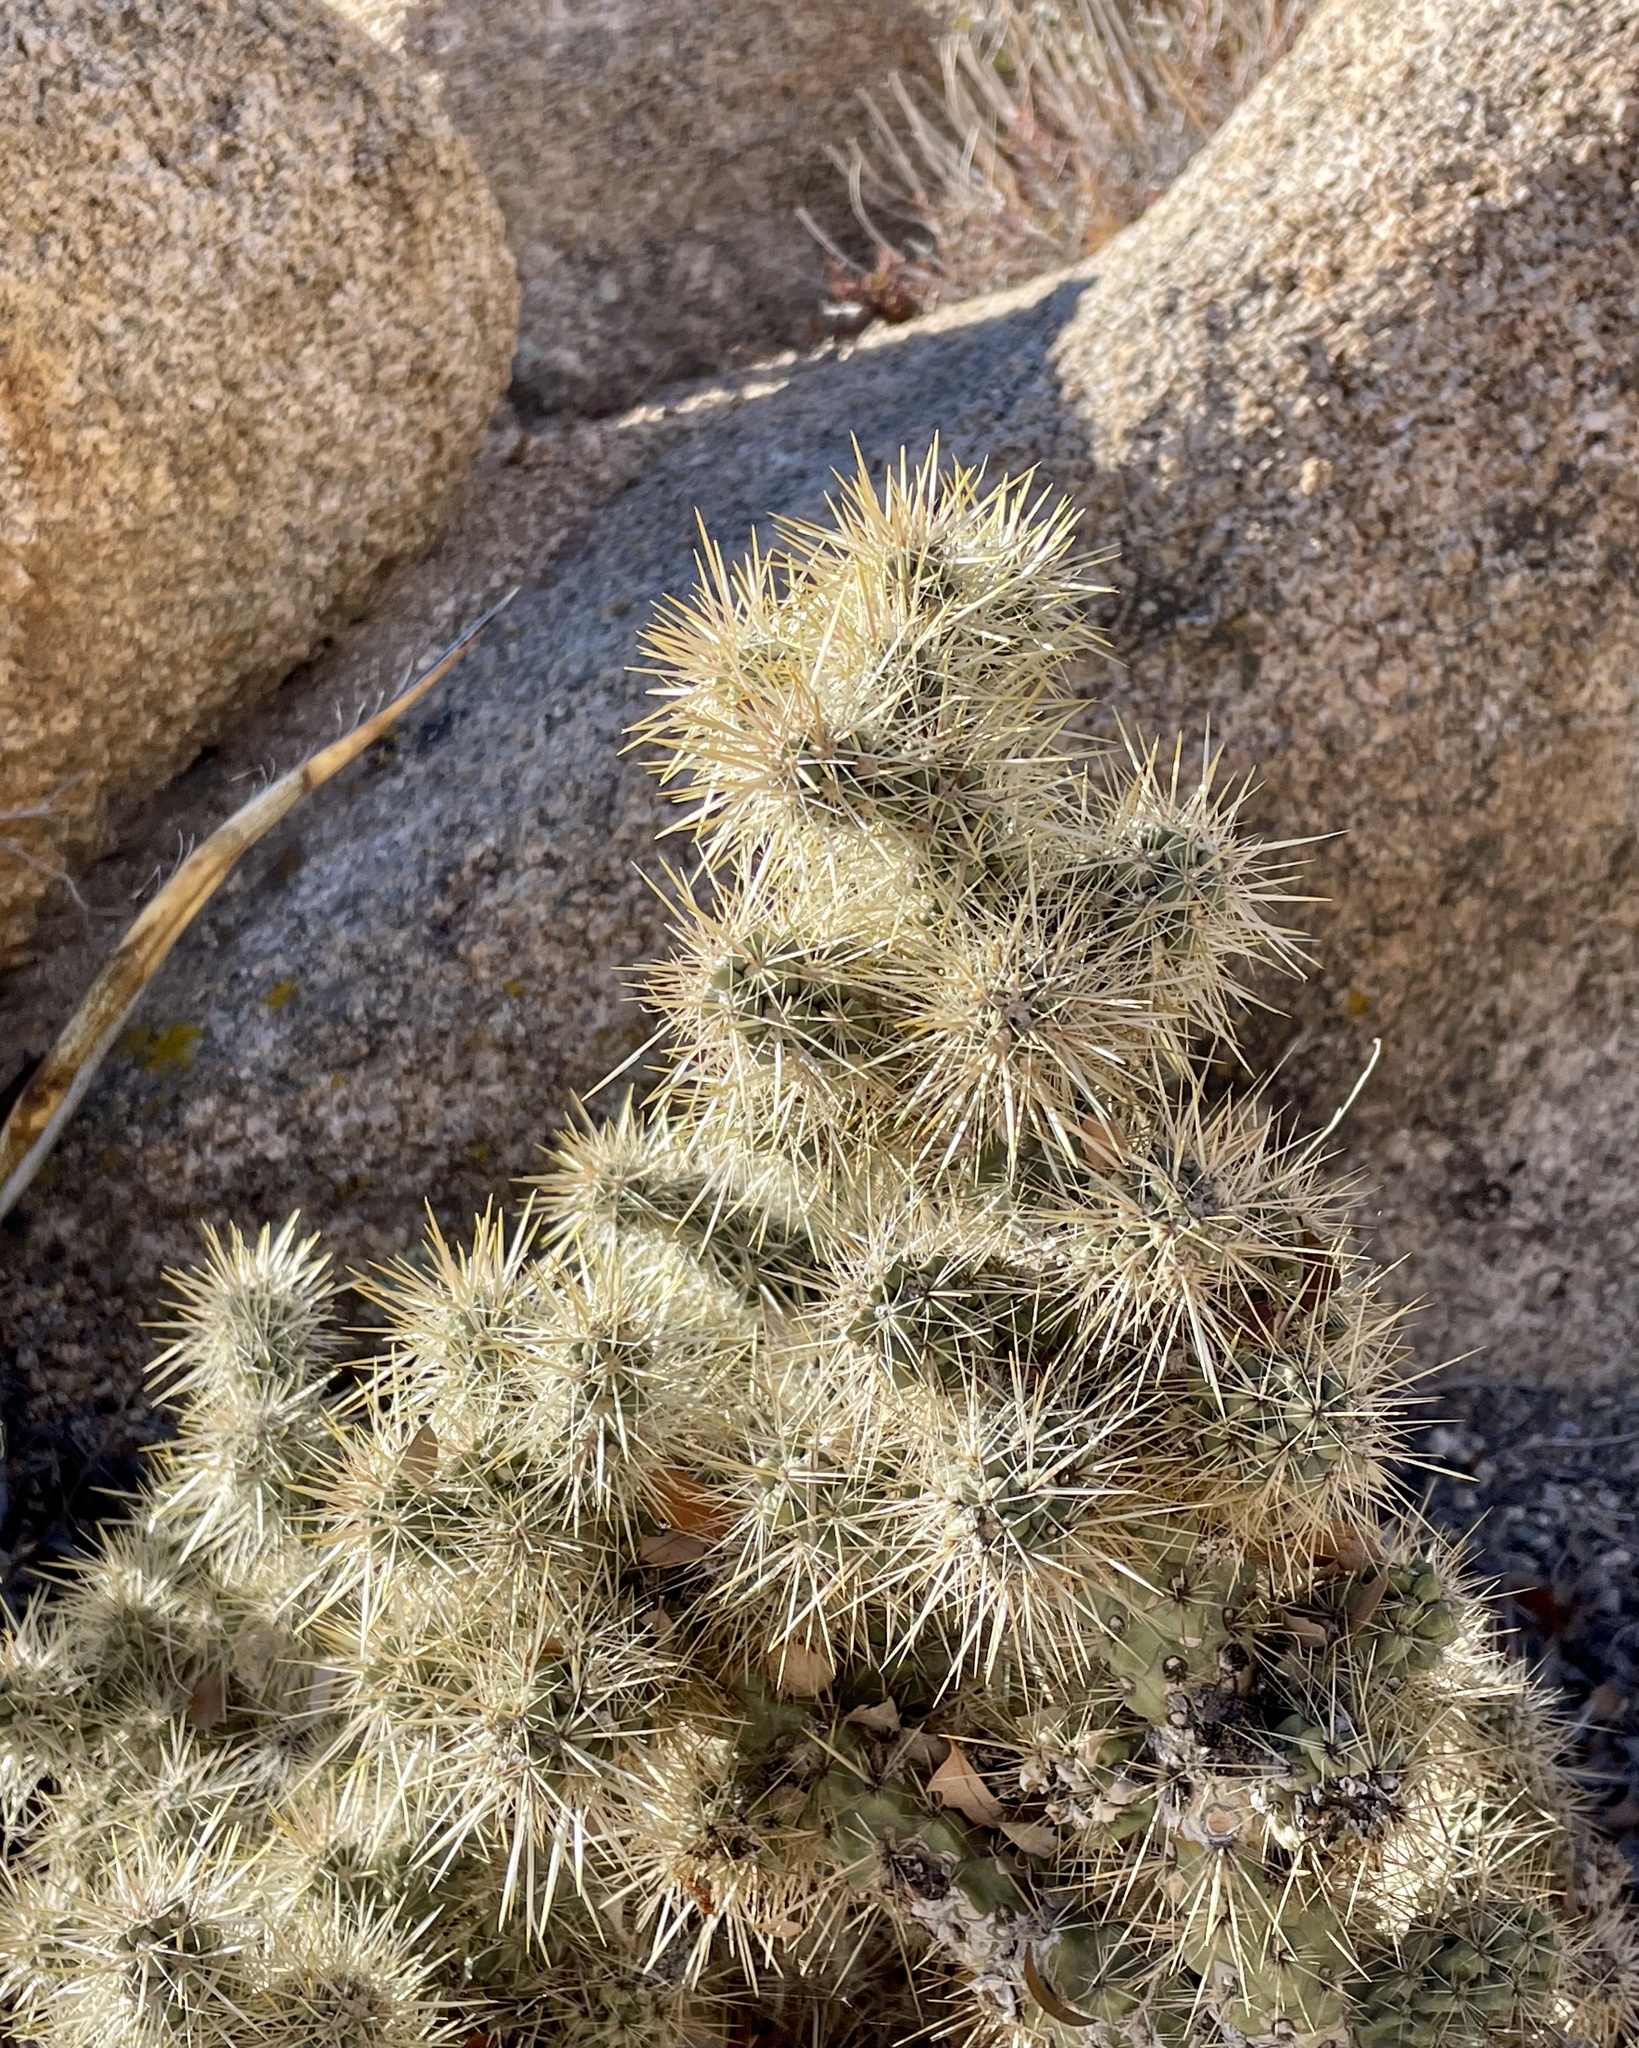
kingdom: Plantae
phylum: Tracheophyta
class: Magnoliopsida
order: Caryophyllales
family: Cactaceae
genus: Cylindropuntia
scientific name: Cylindropuntia echinocarpa
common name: Ground cholla
